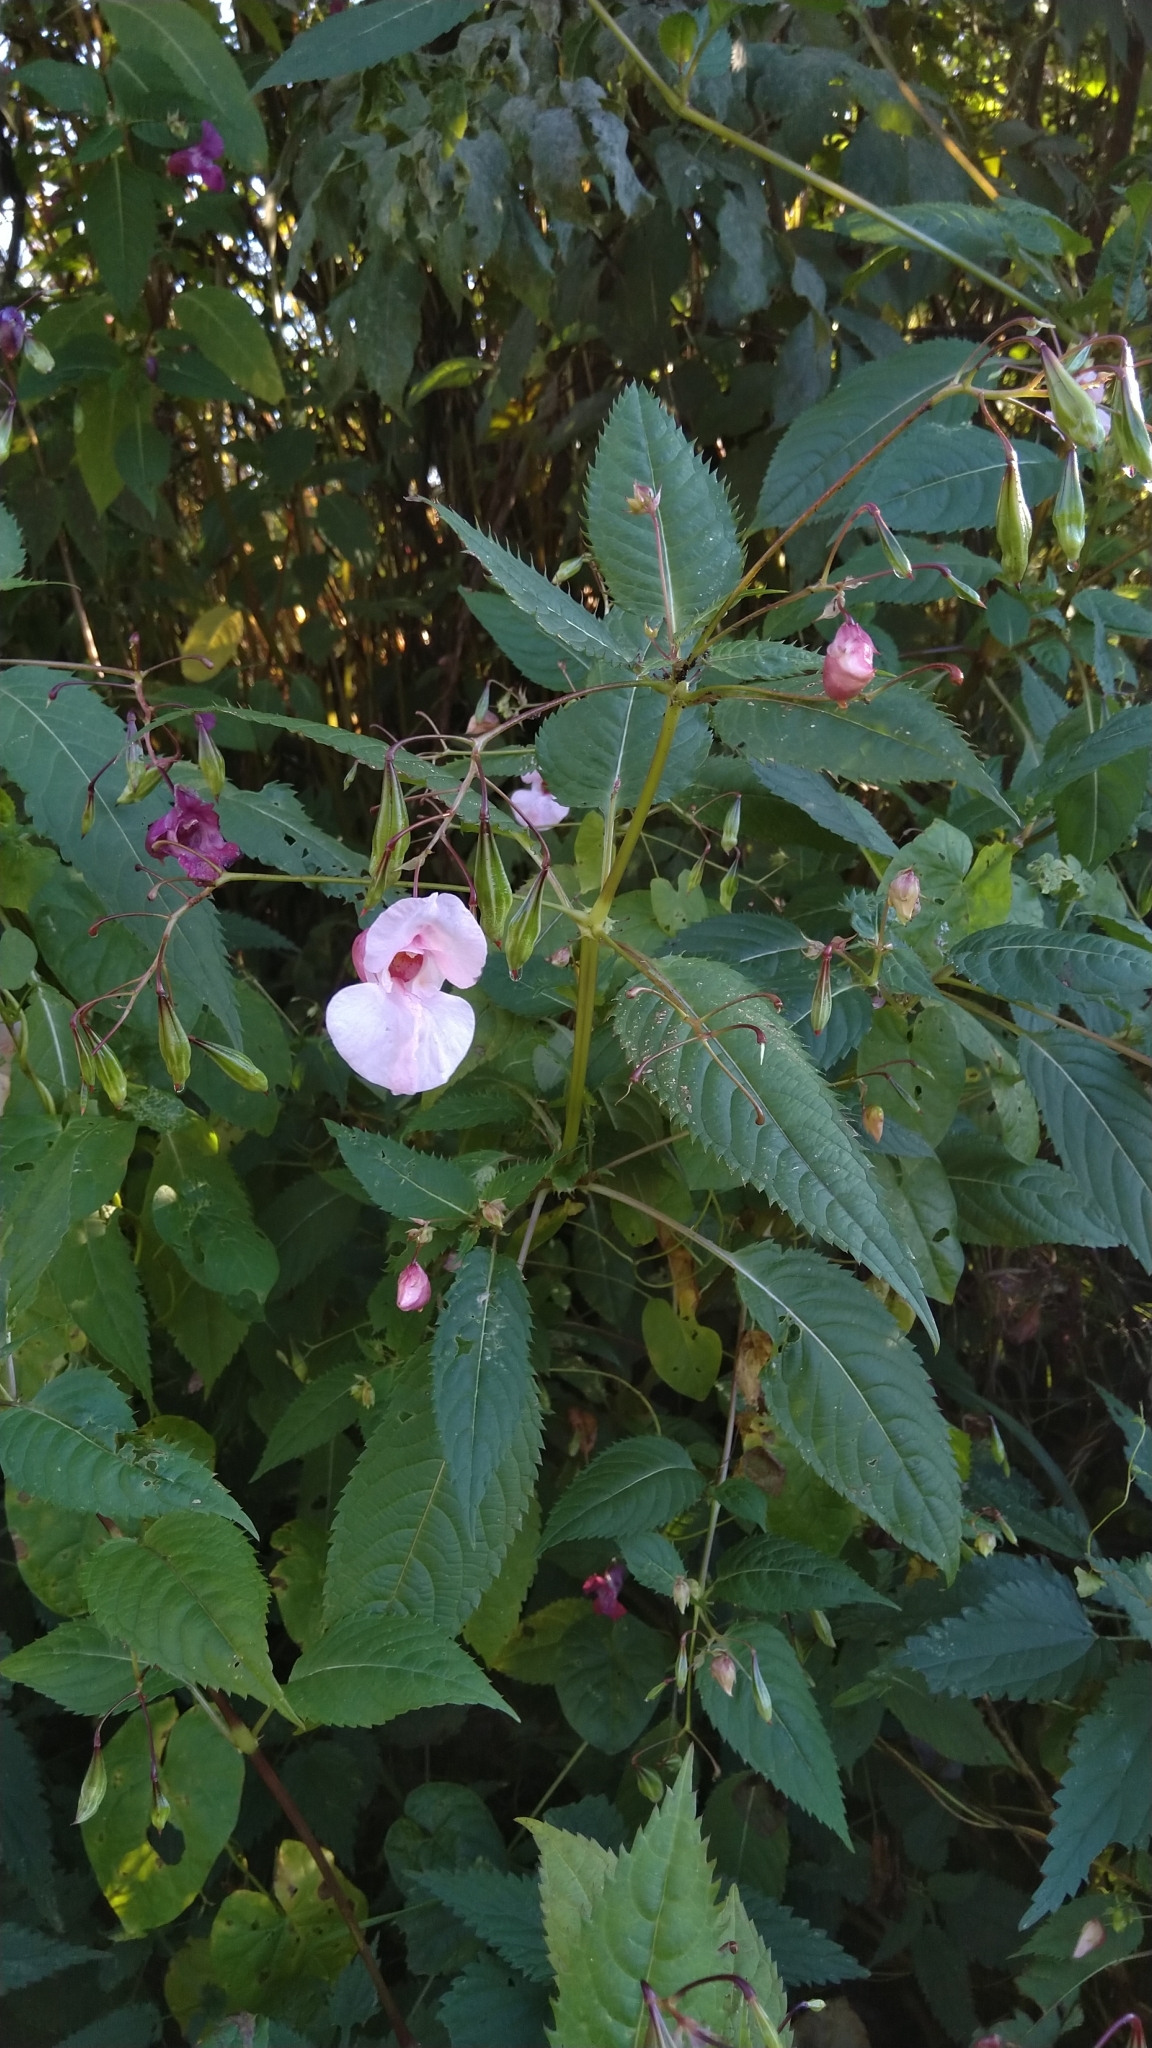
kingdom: Plantae
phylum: Tracheophyta
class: Magnoliopsida
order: Ericales
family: Balsaminaceae
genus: Impatiens
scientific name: Impatiens glandulifera
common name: Himalayan balsam
